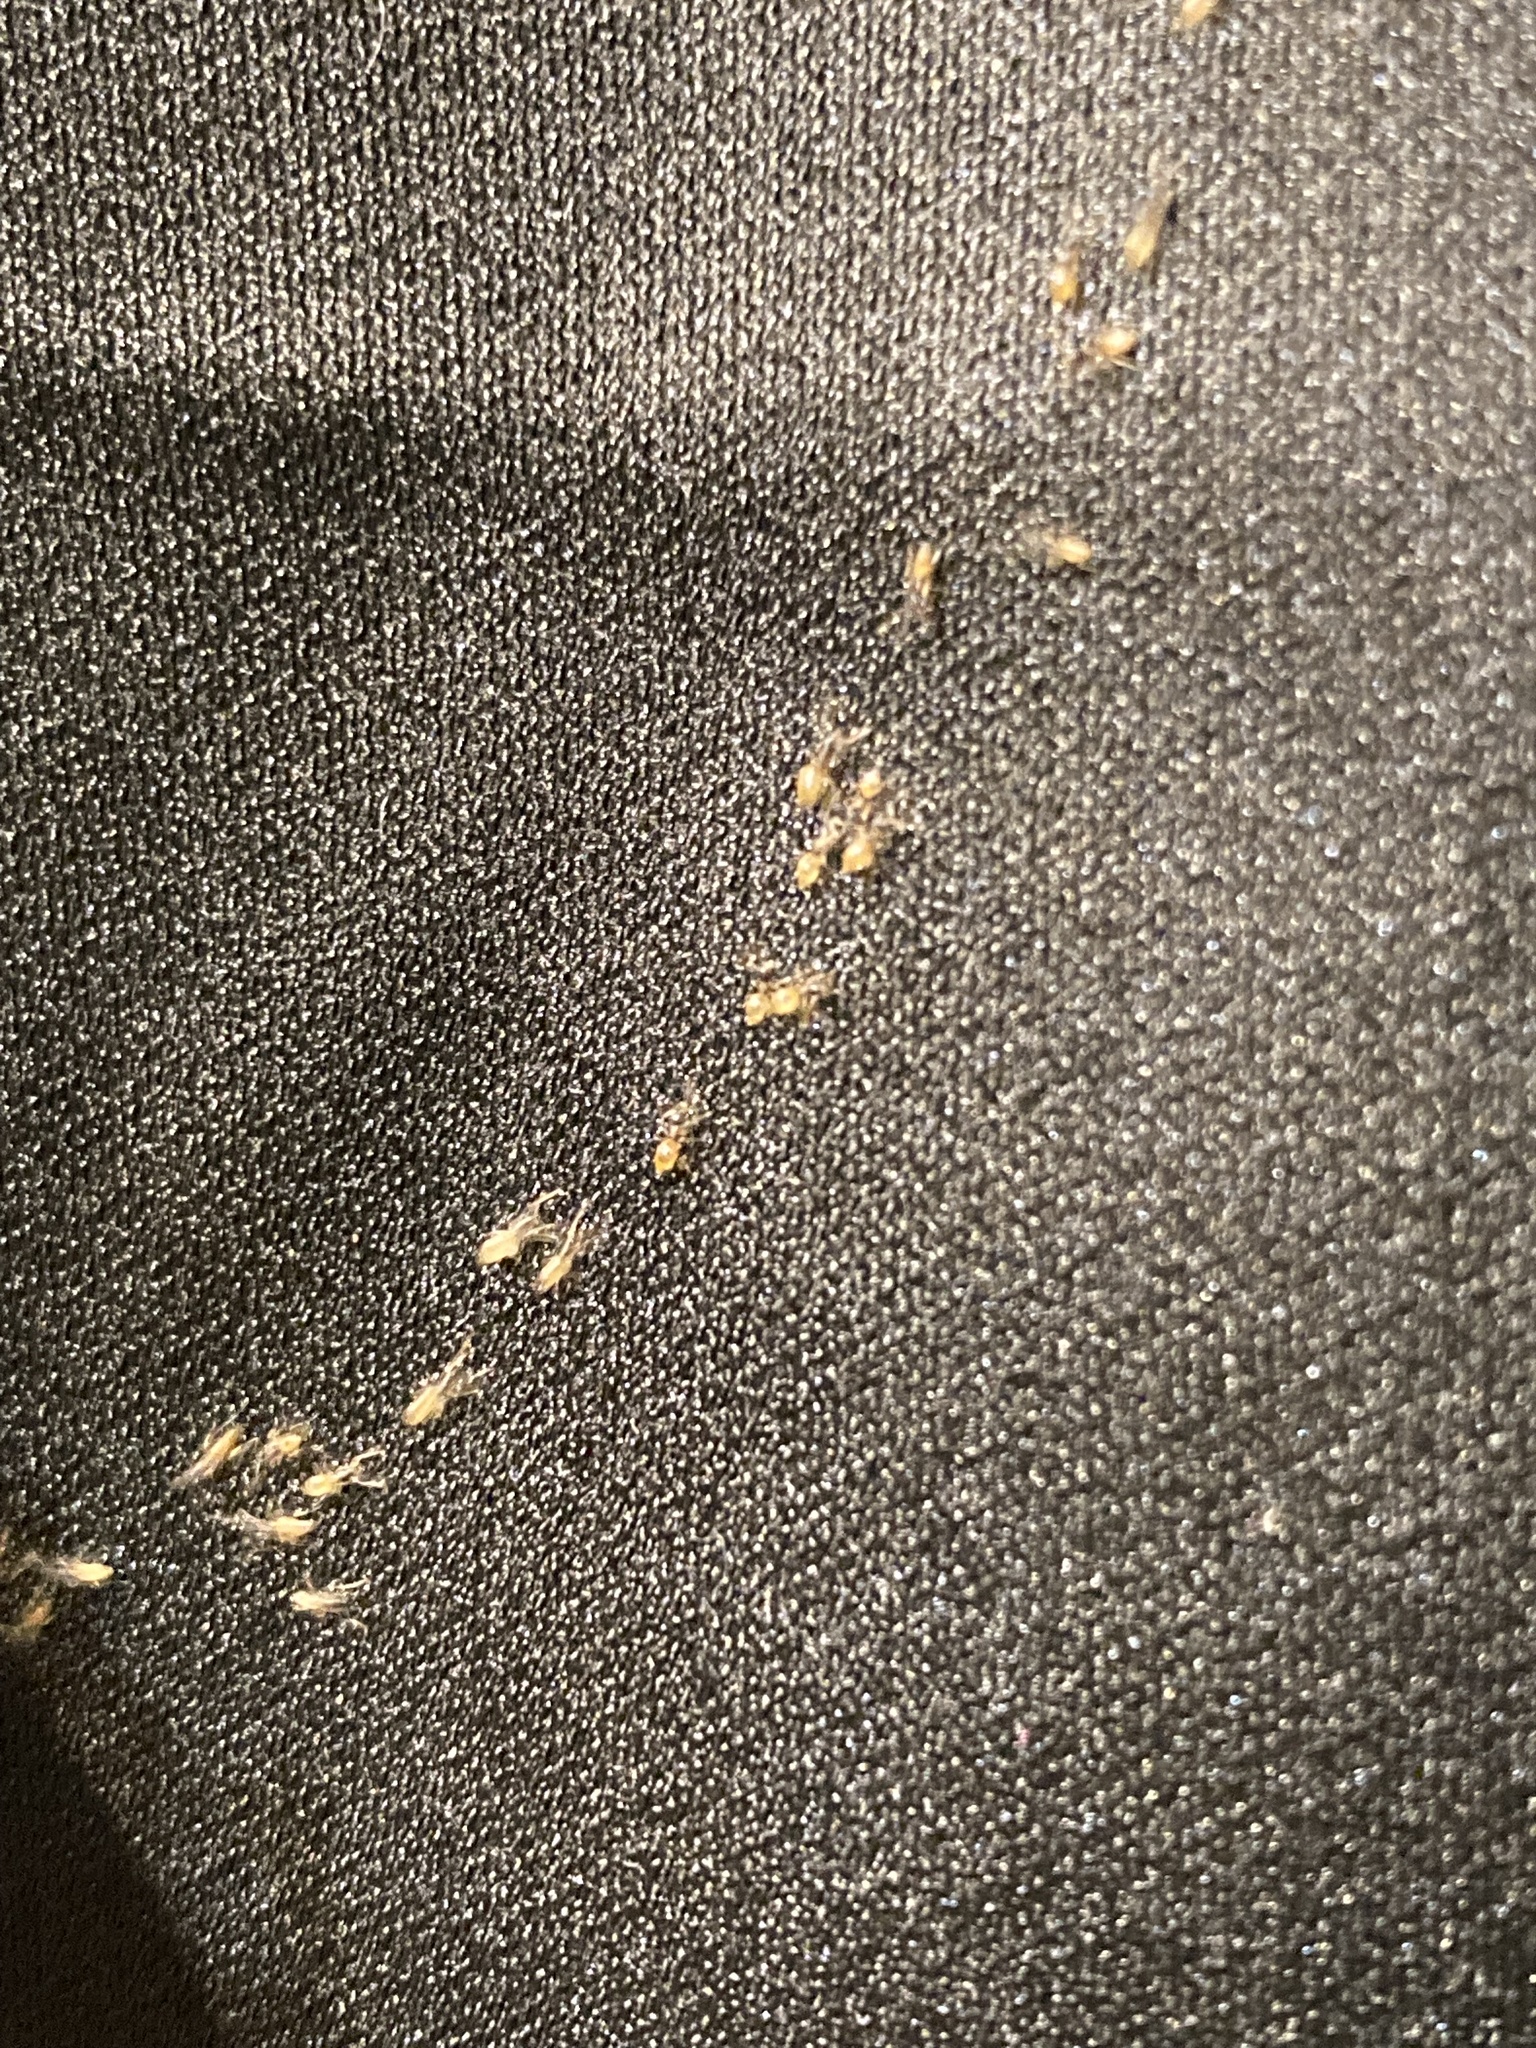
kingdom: Animalia
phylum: Arthropoda
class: Insecta
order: Hymenoptera
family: Formicidae
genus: Tapinoma
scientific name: Tapinoma melanocephalum
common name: Ghost ant
